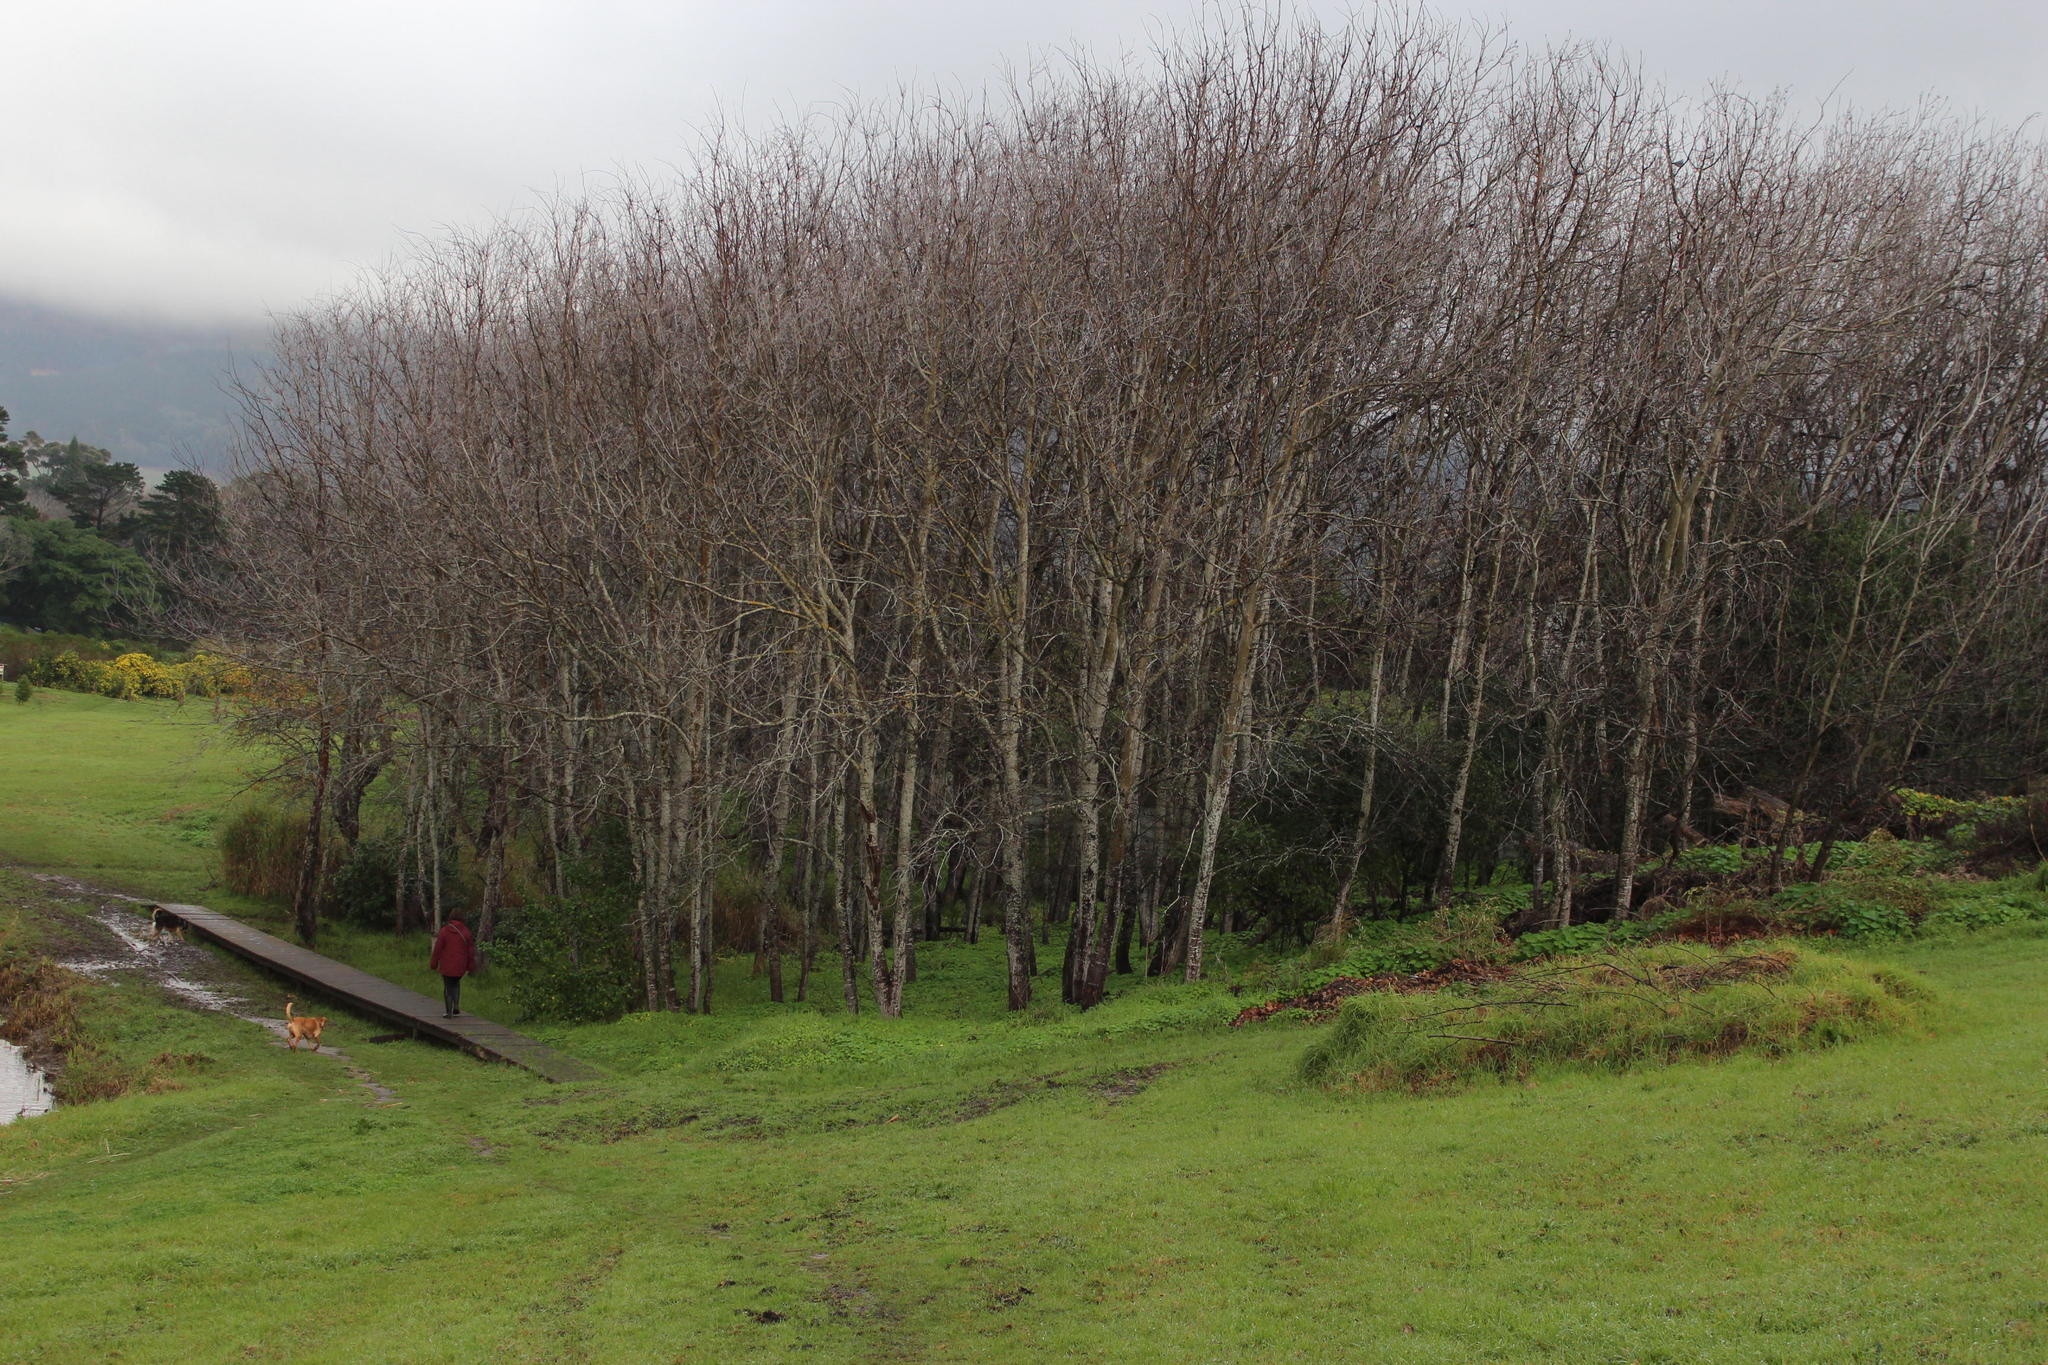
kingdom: Plantae
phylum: Tracheophyta
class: Magnoliopsida
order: Malpighiales
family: Salicaceae
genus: Populus
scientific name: Populus canescens
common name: Gray poplar
